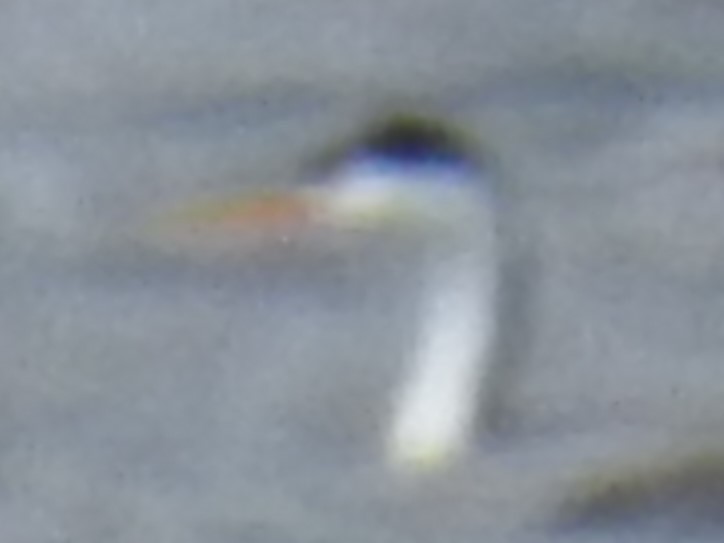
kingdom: Animalia
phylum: Chordata
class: Aves
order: Podicipediformes
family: Podicipedidae
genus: Aechmophorus
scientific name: Aechmophorus clarkii
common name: Clark's grebe
